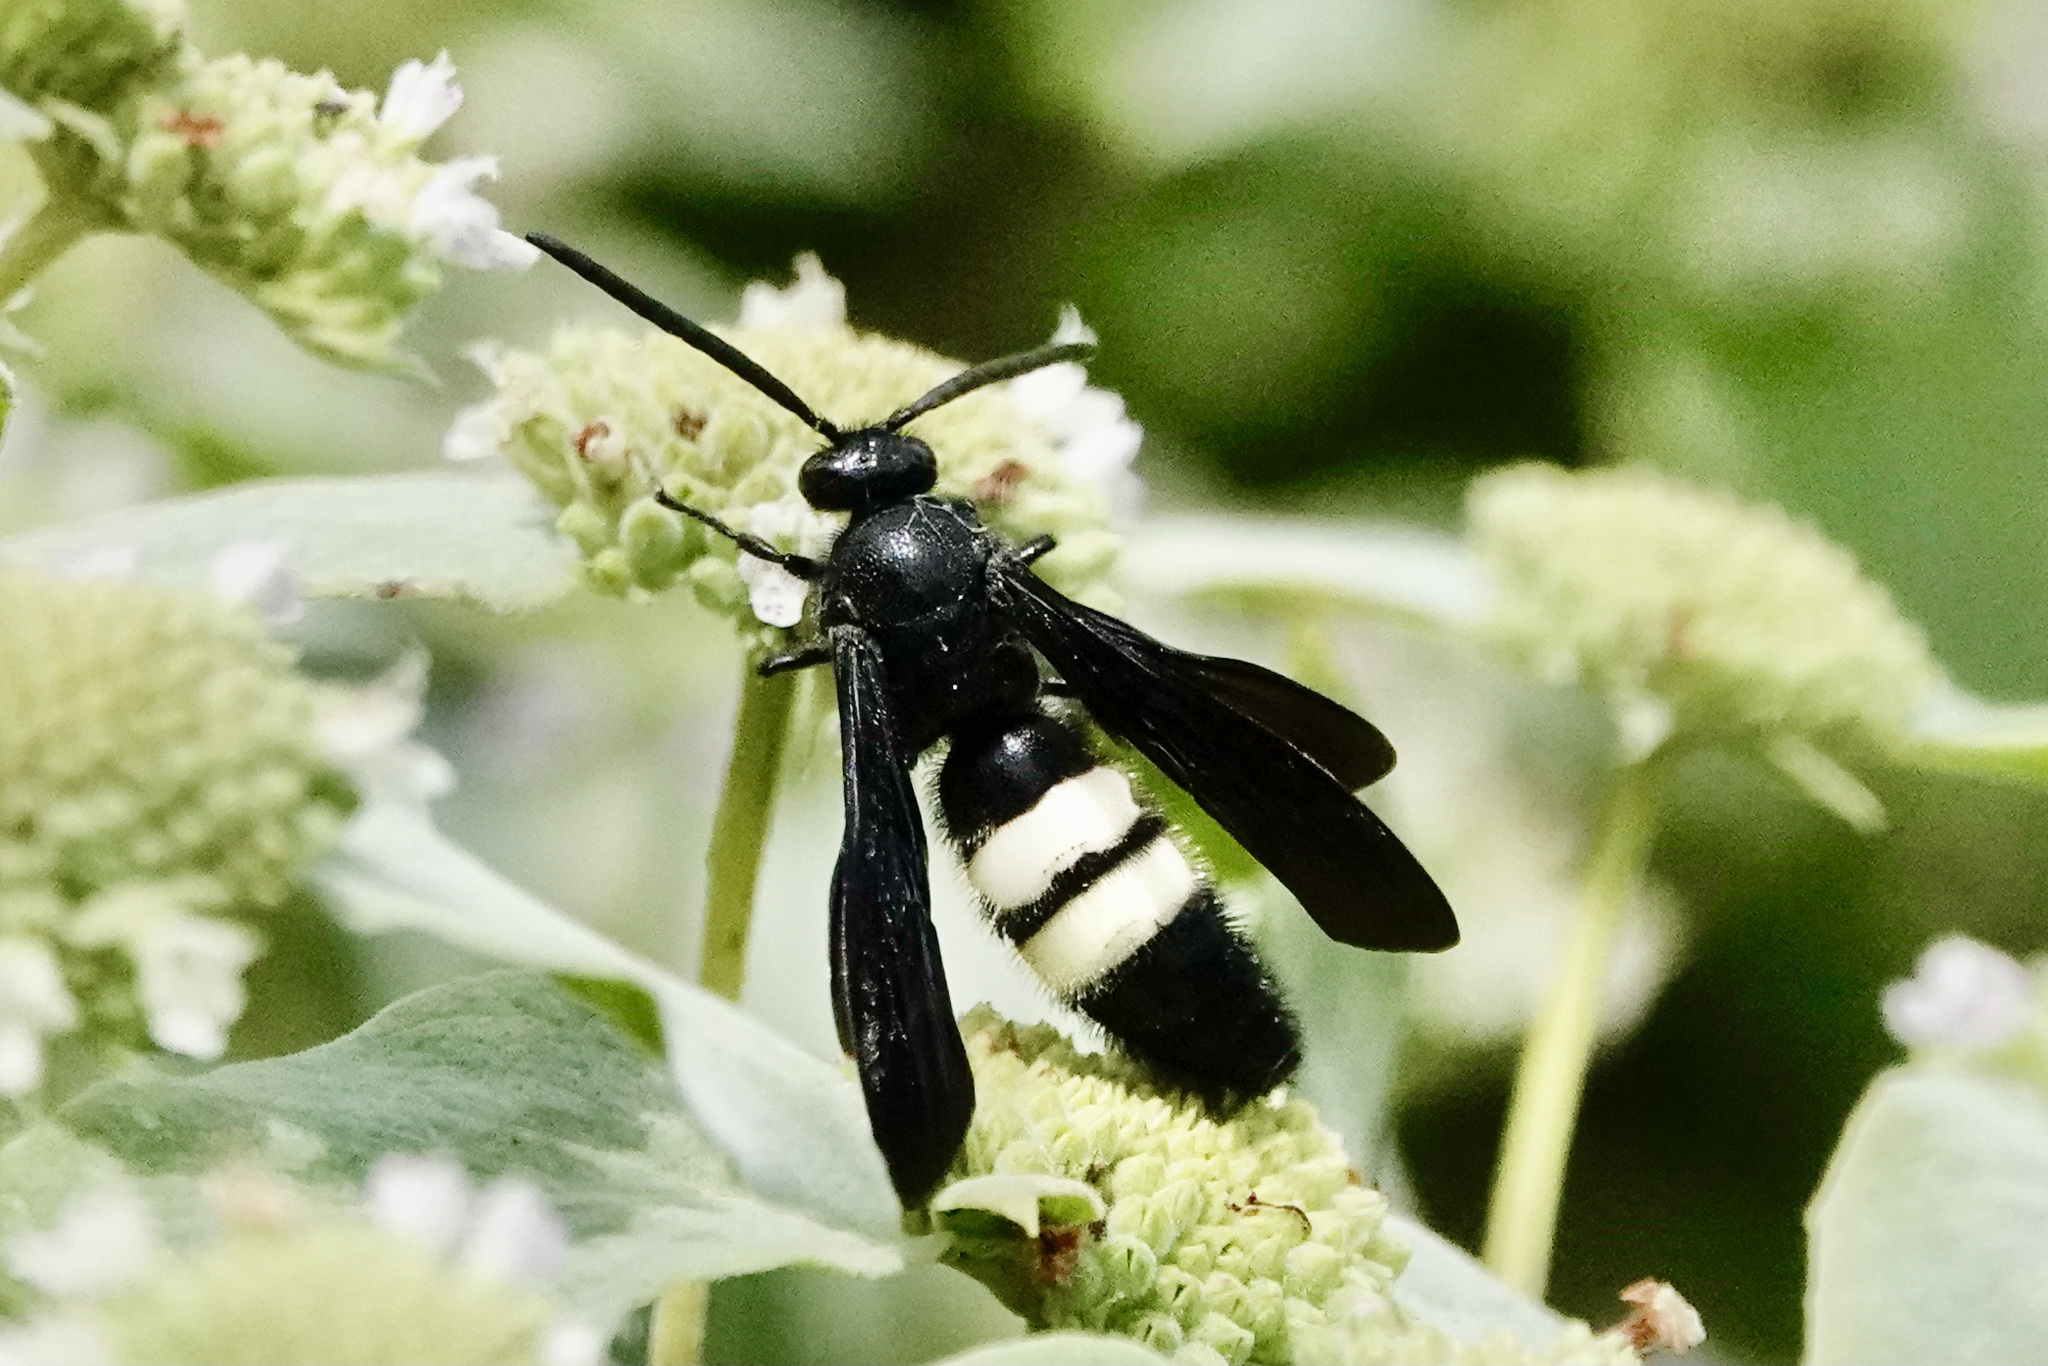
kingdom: Animalia
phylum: Arthropoda
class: Insecta
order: Hymenoptera
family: Scoliidae
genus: Scolia
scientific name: Scolia bicincta
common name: Double-banded scoliid wasp
